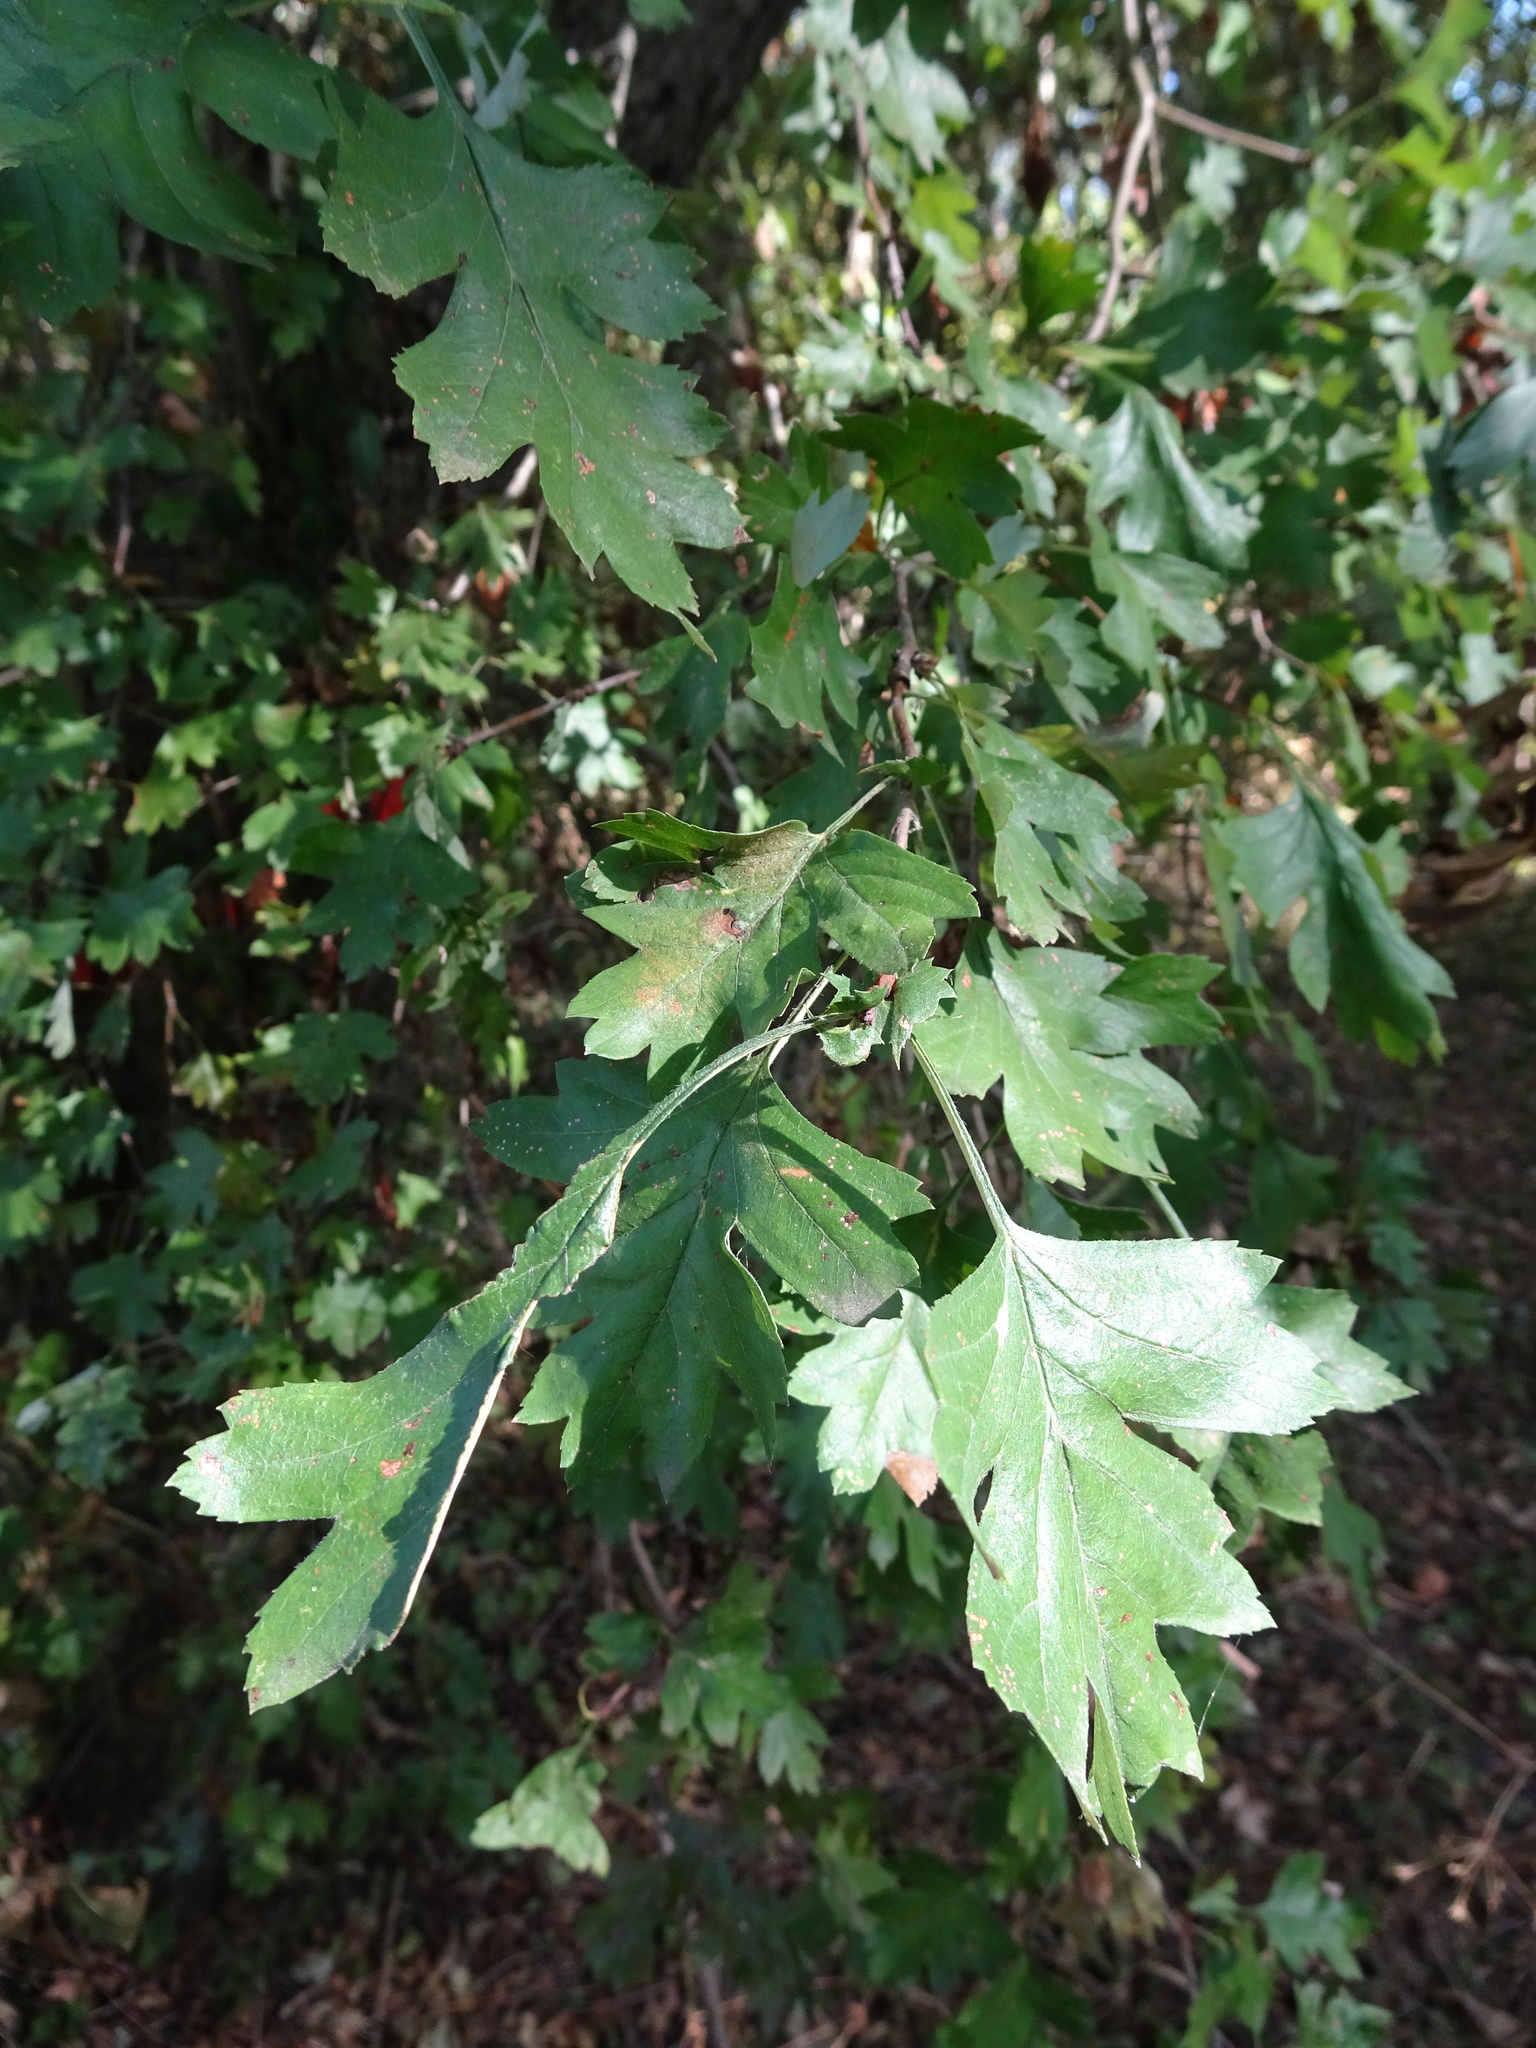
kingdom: Plantae
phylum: Tracheophyta
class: Magnoliopsida
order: Rosales
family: Rosaceae
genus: Crataegus
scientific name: Crataegus monogyna
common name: Hawthorn
